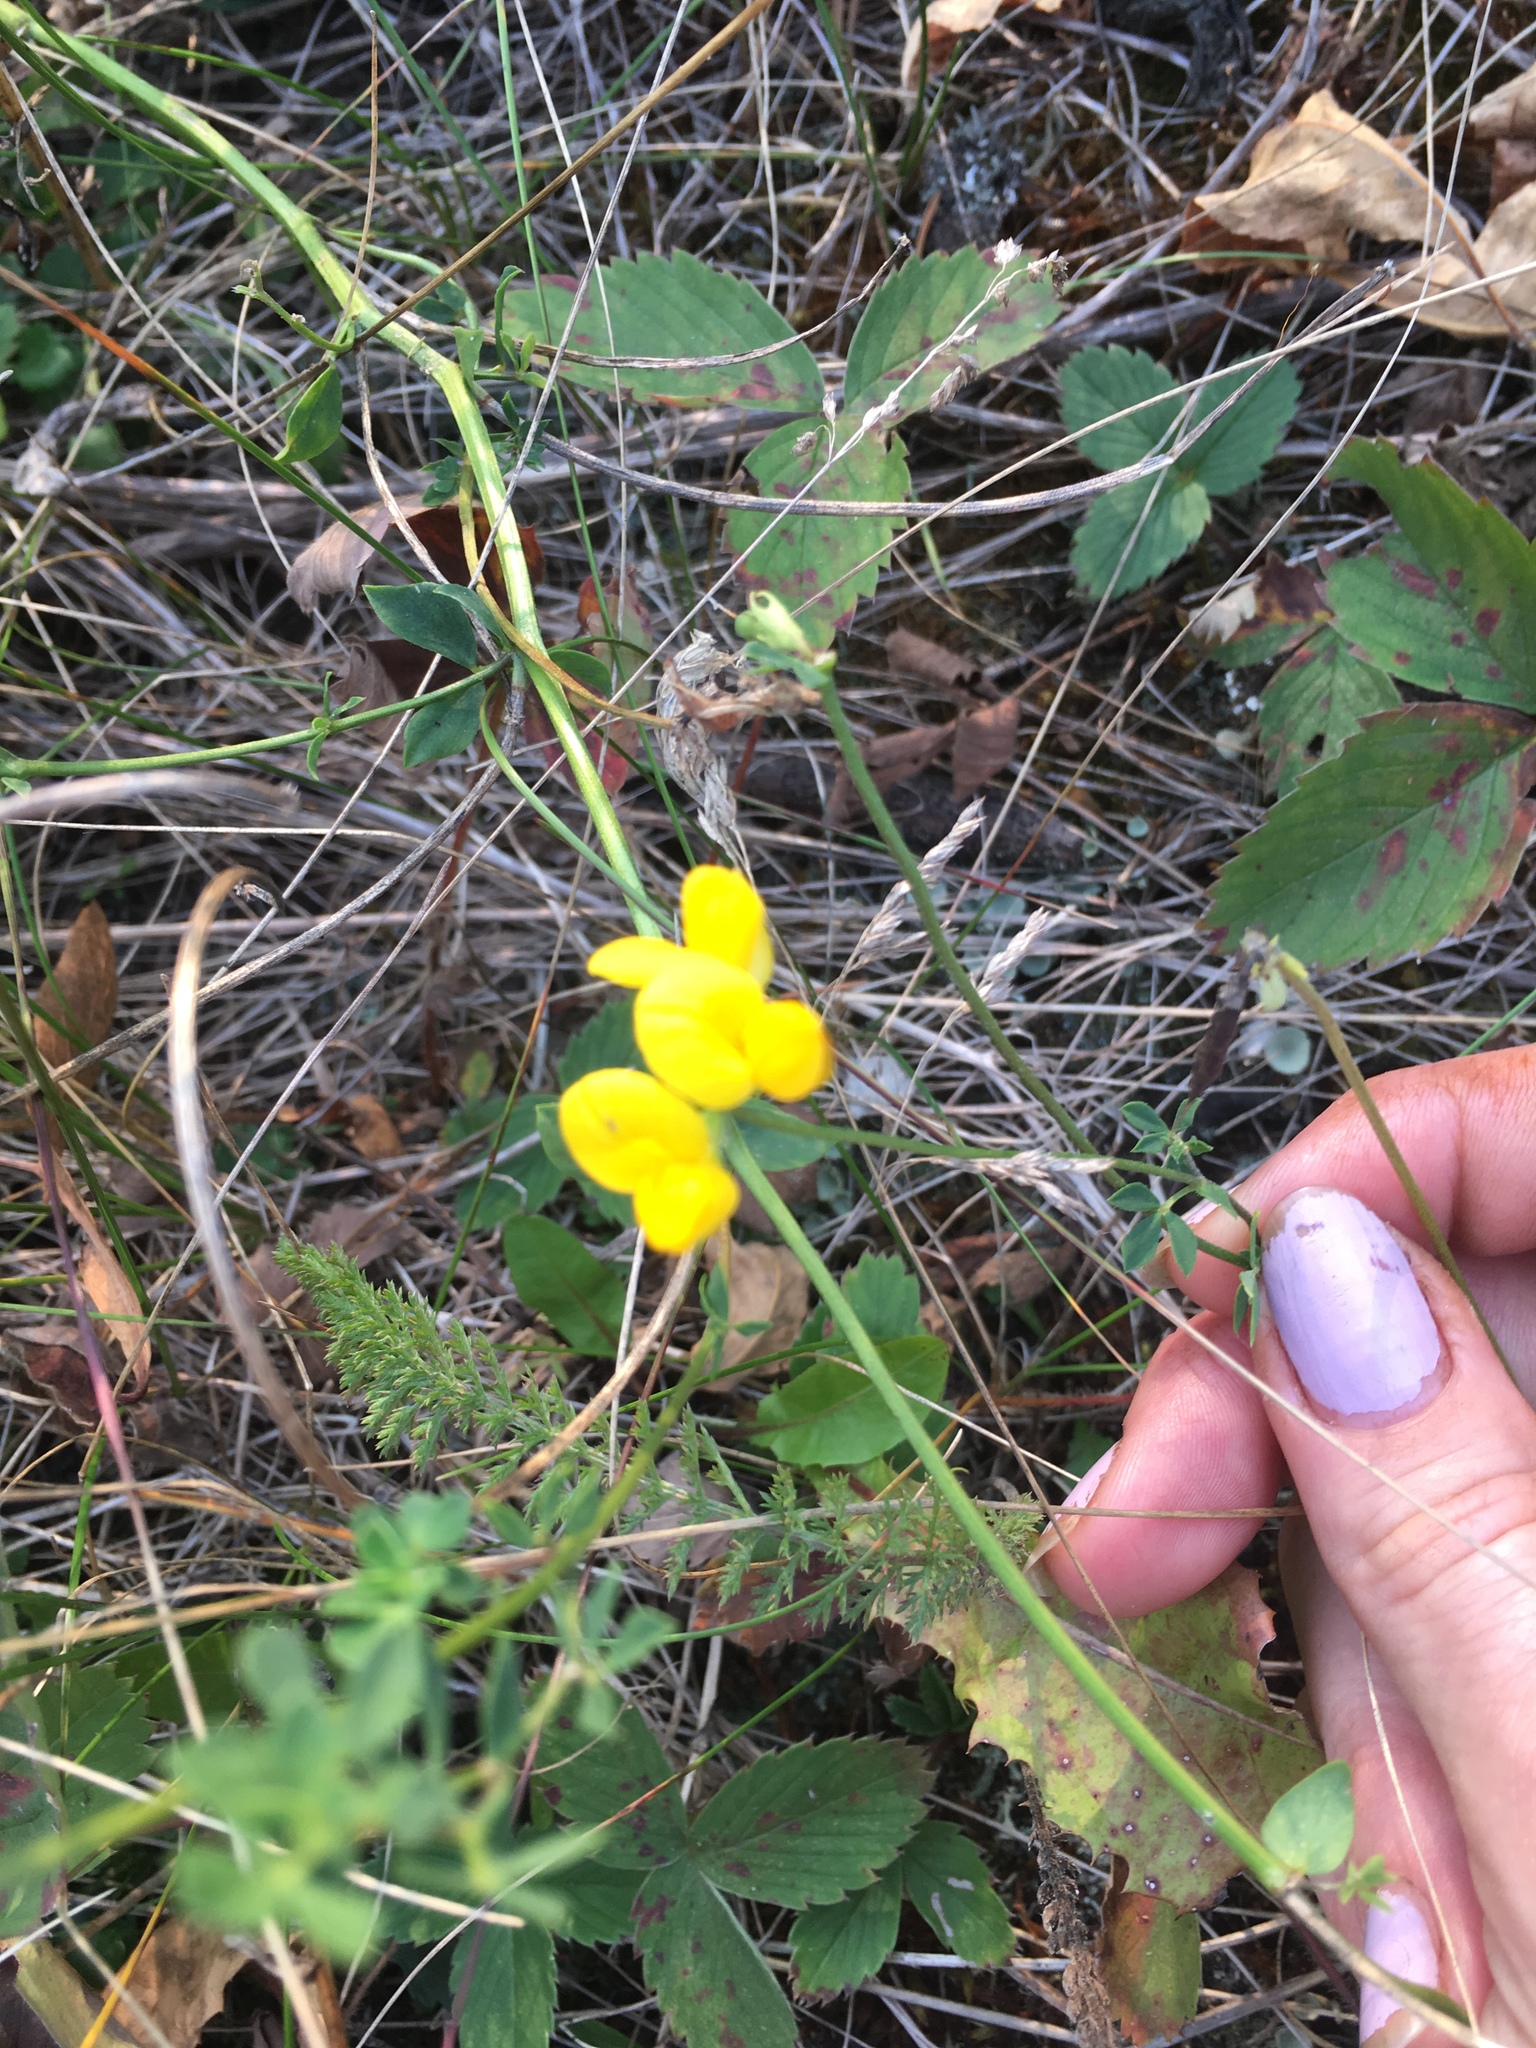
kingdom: Plantae
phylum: Tracheophyta
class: Magnoliopsida
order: Fabales
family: Fabaceae
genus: Lotus
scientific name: Lotus corniculatus
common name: Common bird's-foot-trefoil
